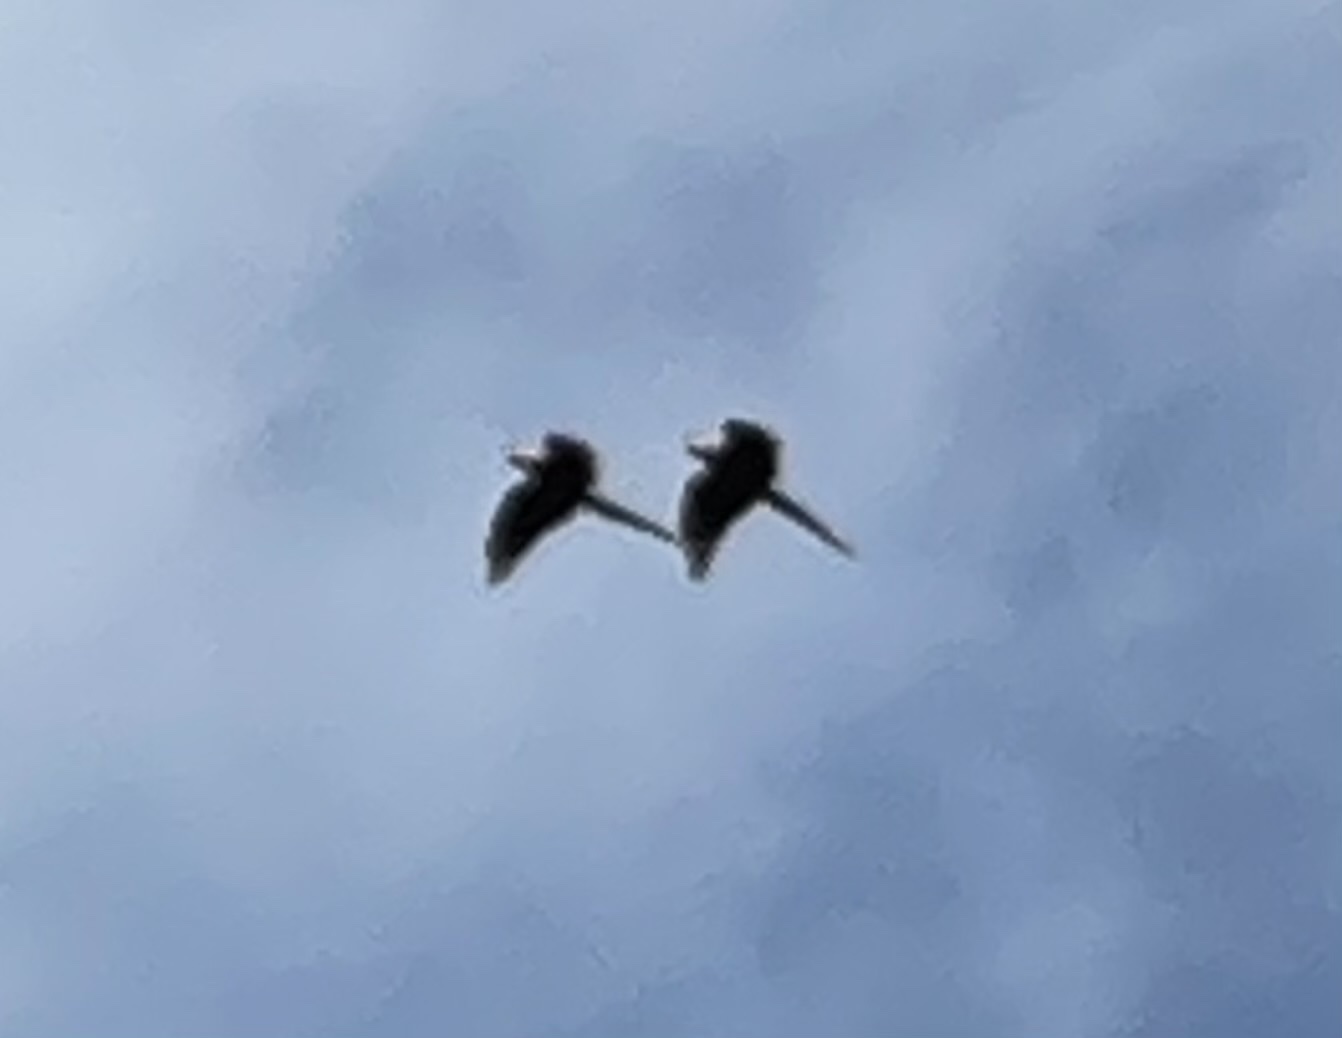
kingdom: Animalia
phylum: Chordata
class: Aves
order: Psittaciformes
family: Psittacidae
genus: Ara
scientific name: Ara macao
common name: Scarlet macaw
